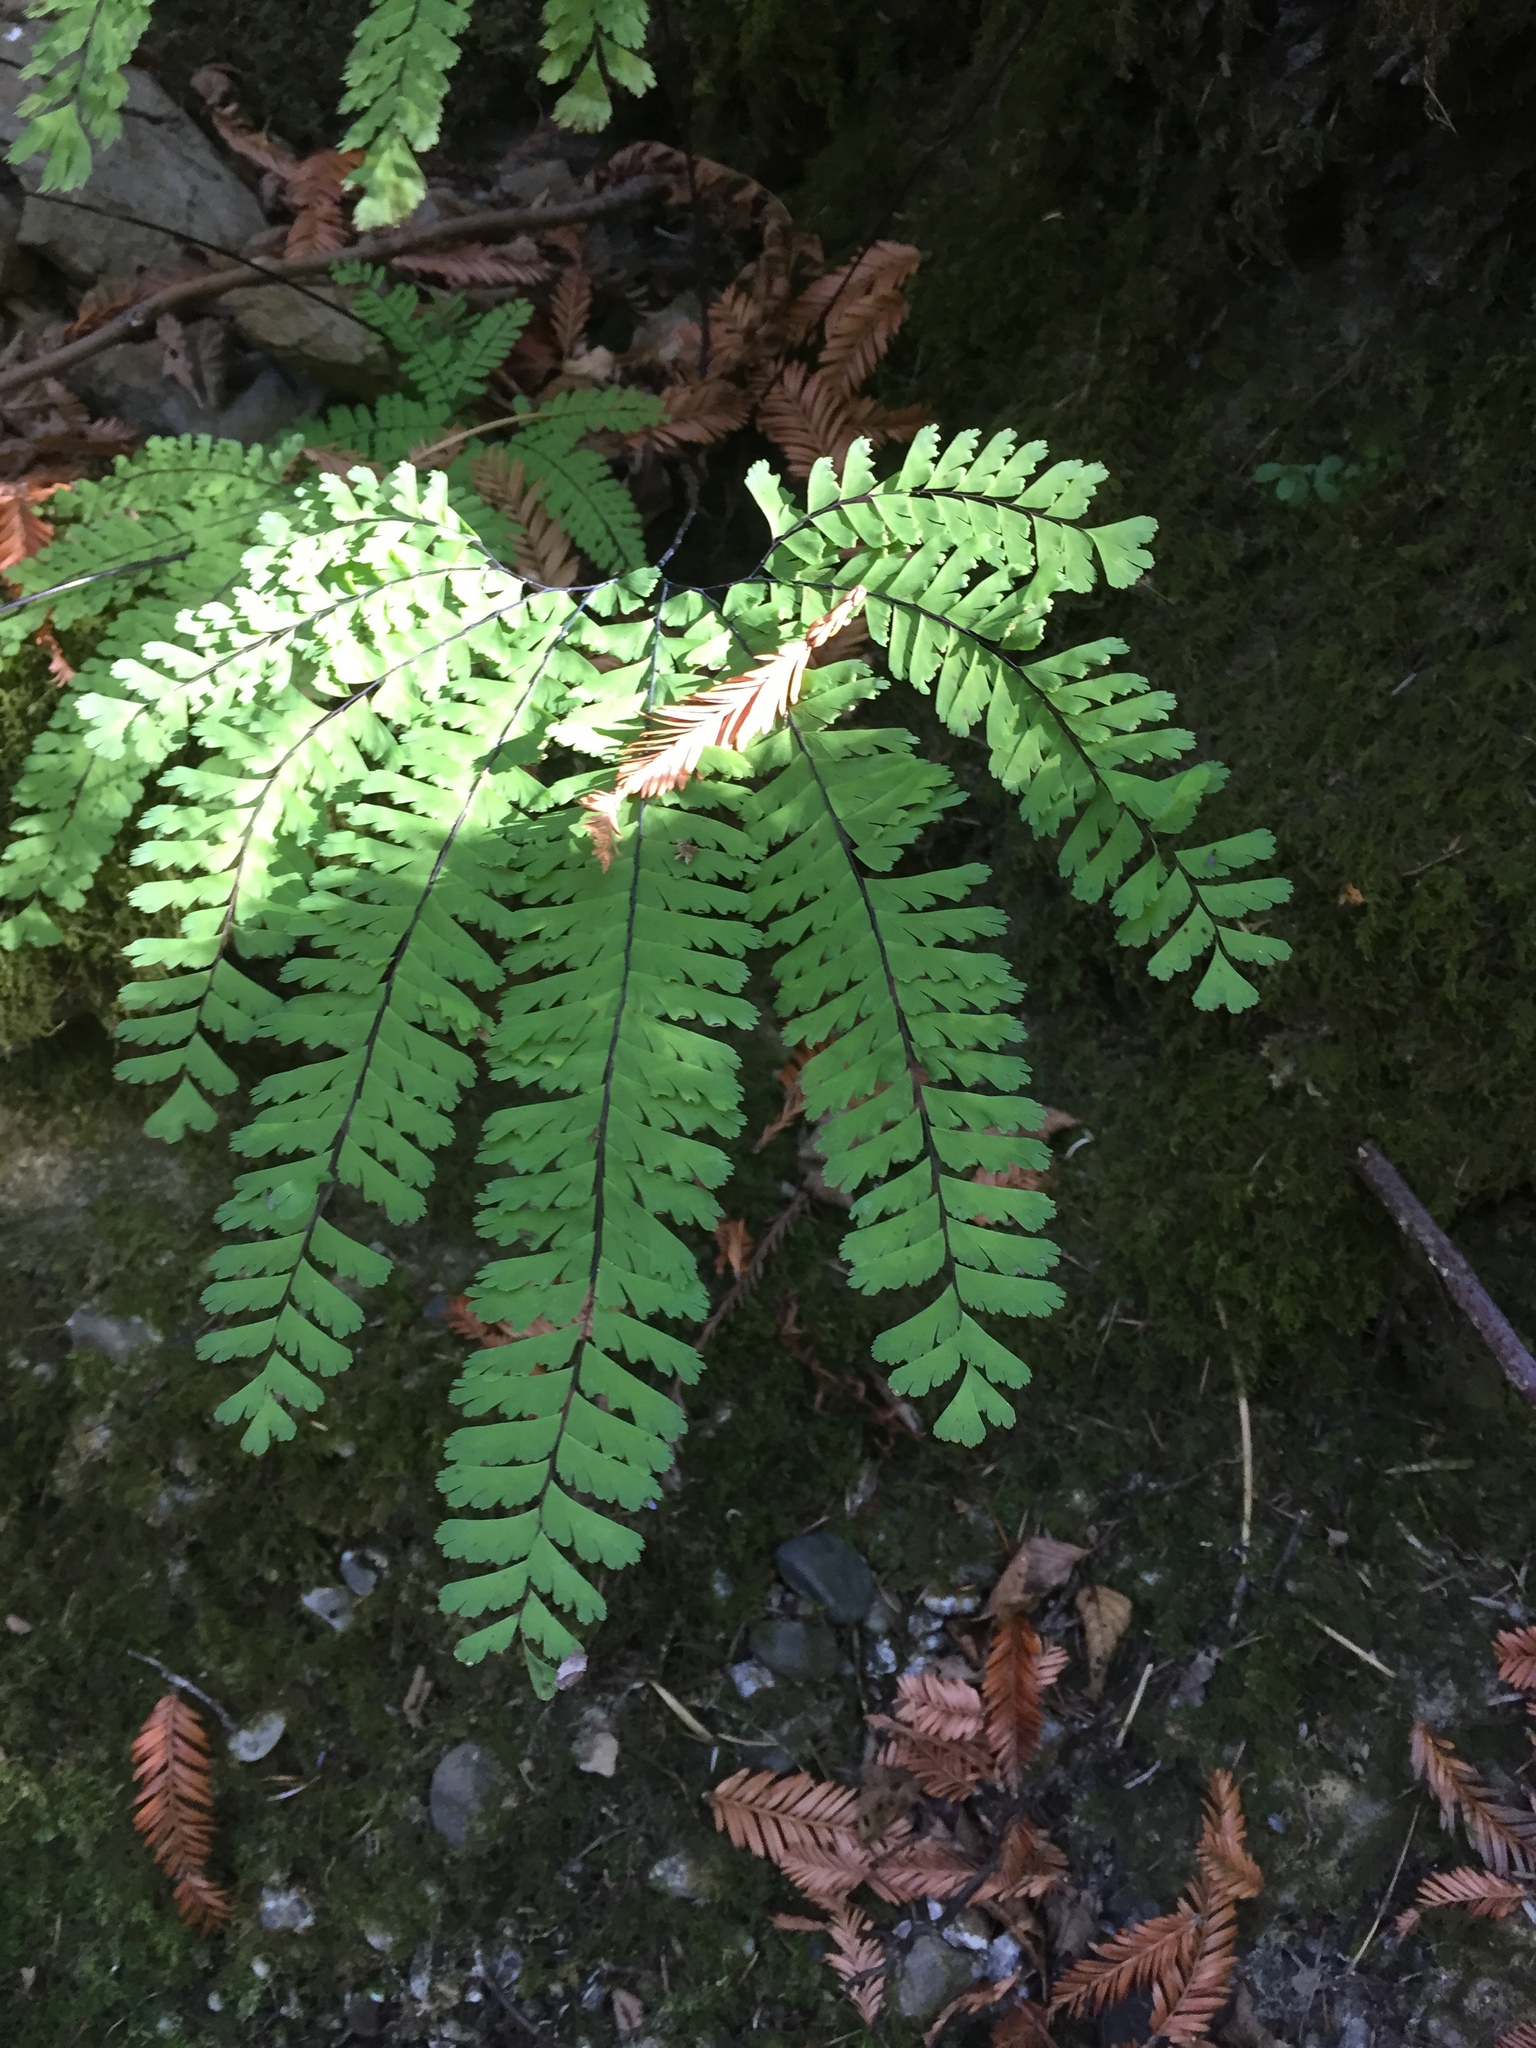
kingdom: Plantae
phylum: Tracheophyta
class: Polypodiopsida
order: Polypodiales
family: Pteridaceae
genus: Adiantum
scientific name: Adiantum aleuticum
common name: Aleutian maidenhair fern
